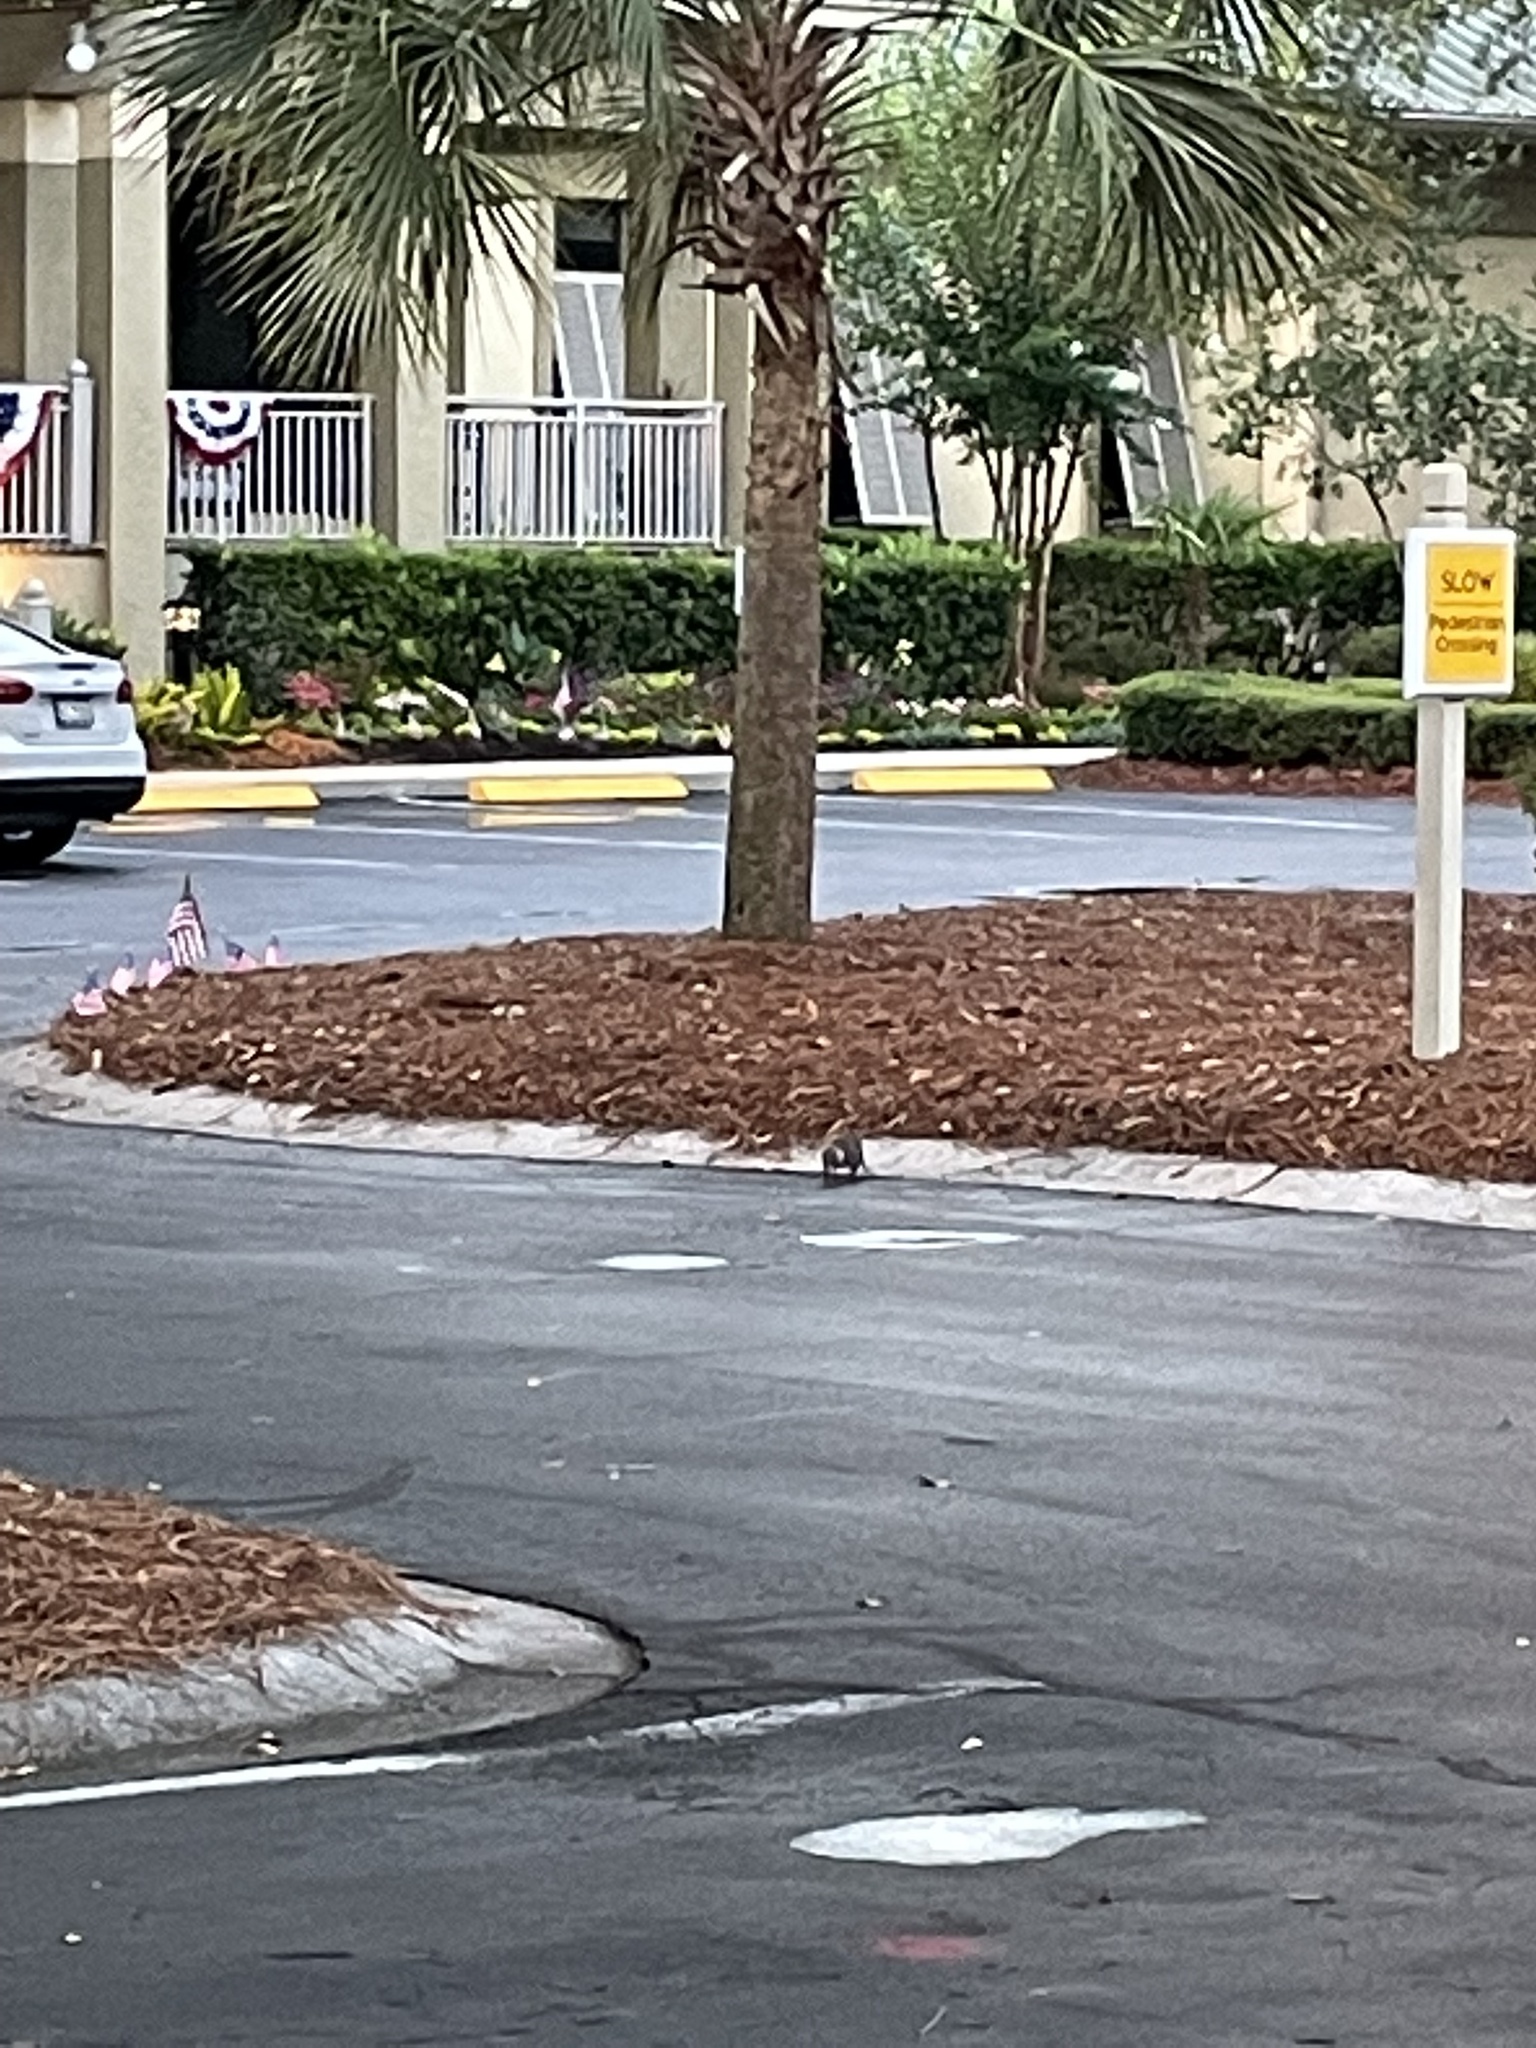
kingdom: Animalia
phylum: Chordata
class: Mammalia
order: Rodentia
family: Sciuridae
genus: Sciurus
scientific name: Sciurus carolinensis
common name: Eastern gray squirrel
